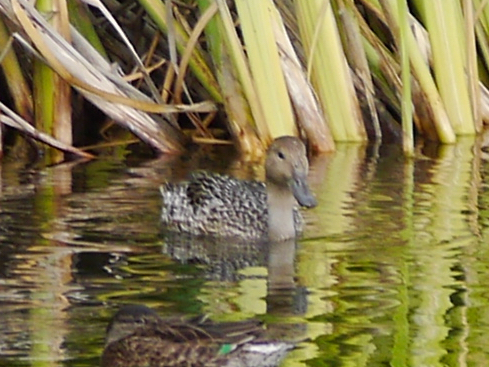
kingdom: Animalia
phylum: Chordata
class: Aves
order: Anseriformes
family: Anatidae
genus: Anas
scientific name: Anas acuta
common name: Northern pintail
